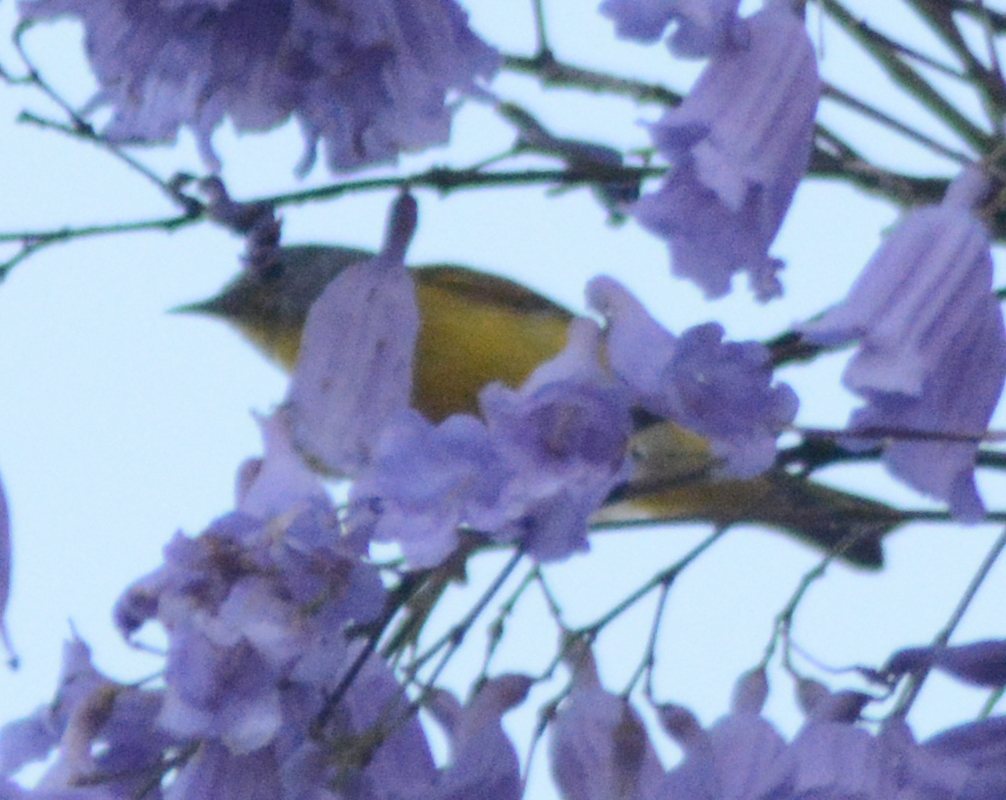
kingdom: Animalia
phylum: Chordata
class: Aves
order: Passeriformes
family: Parulidae
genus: Leiothlypis
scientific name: Leiothlypis ruficapilla
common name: Nashville warbler
